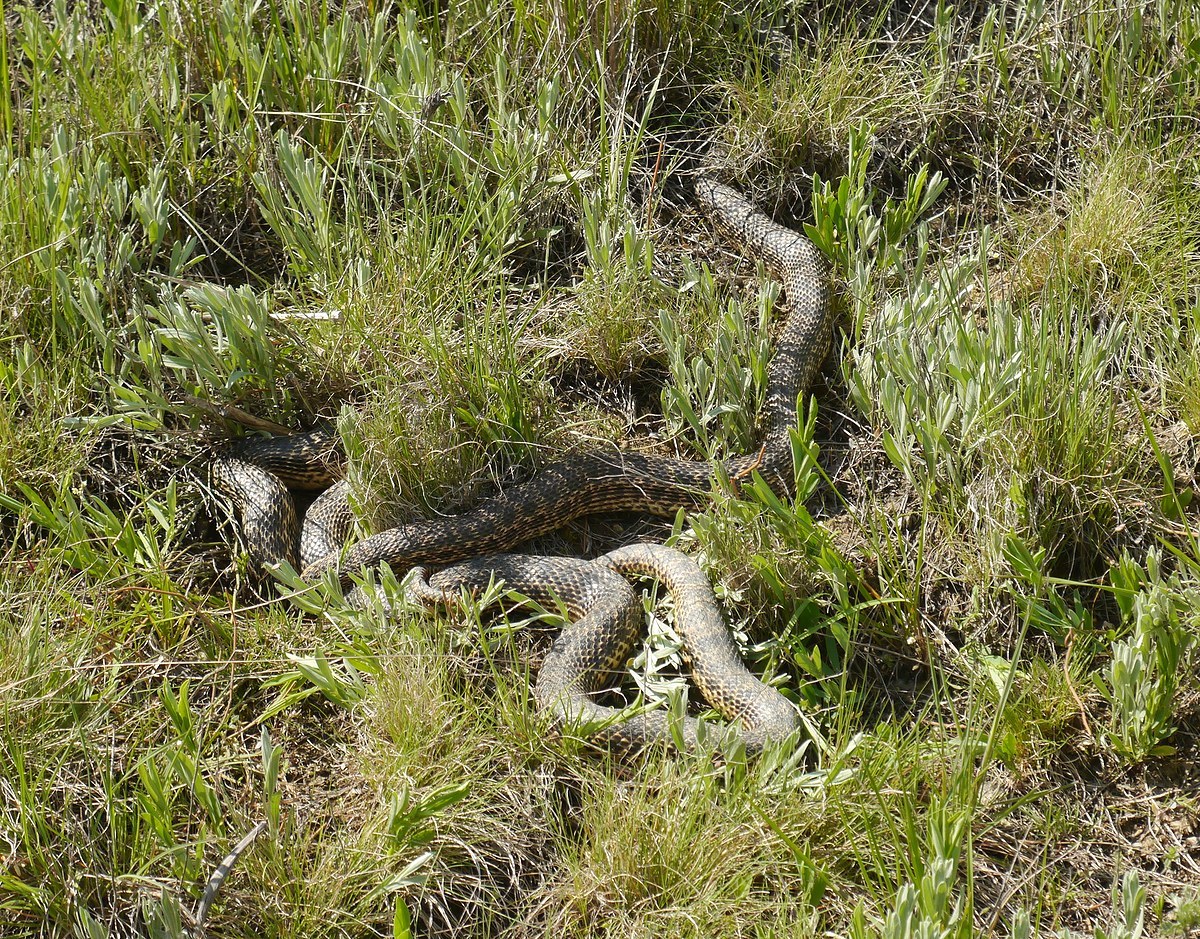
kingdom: Animalia
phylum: Chordata
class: Squamata
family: Colubridae
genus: Elaphe
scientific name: Elaphe sauromates
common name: Eastern four-lined ratsnake
